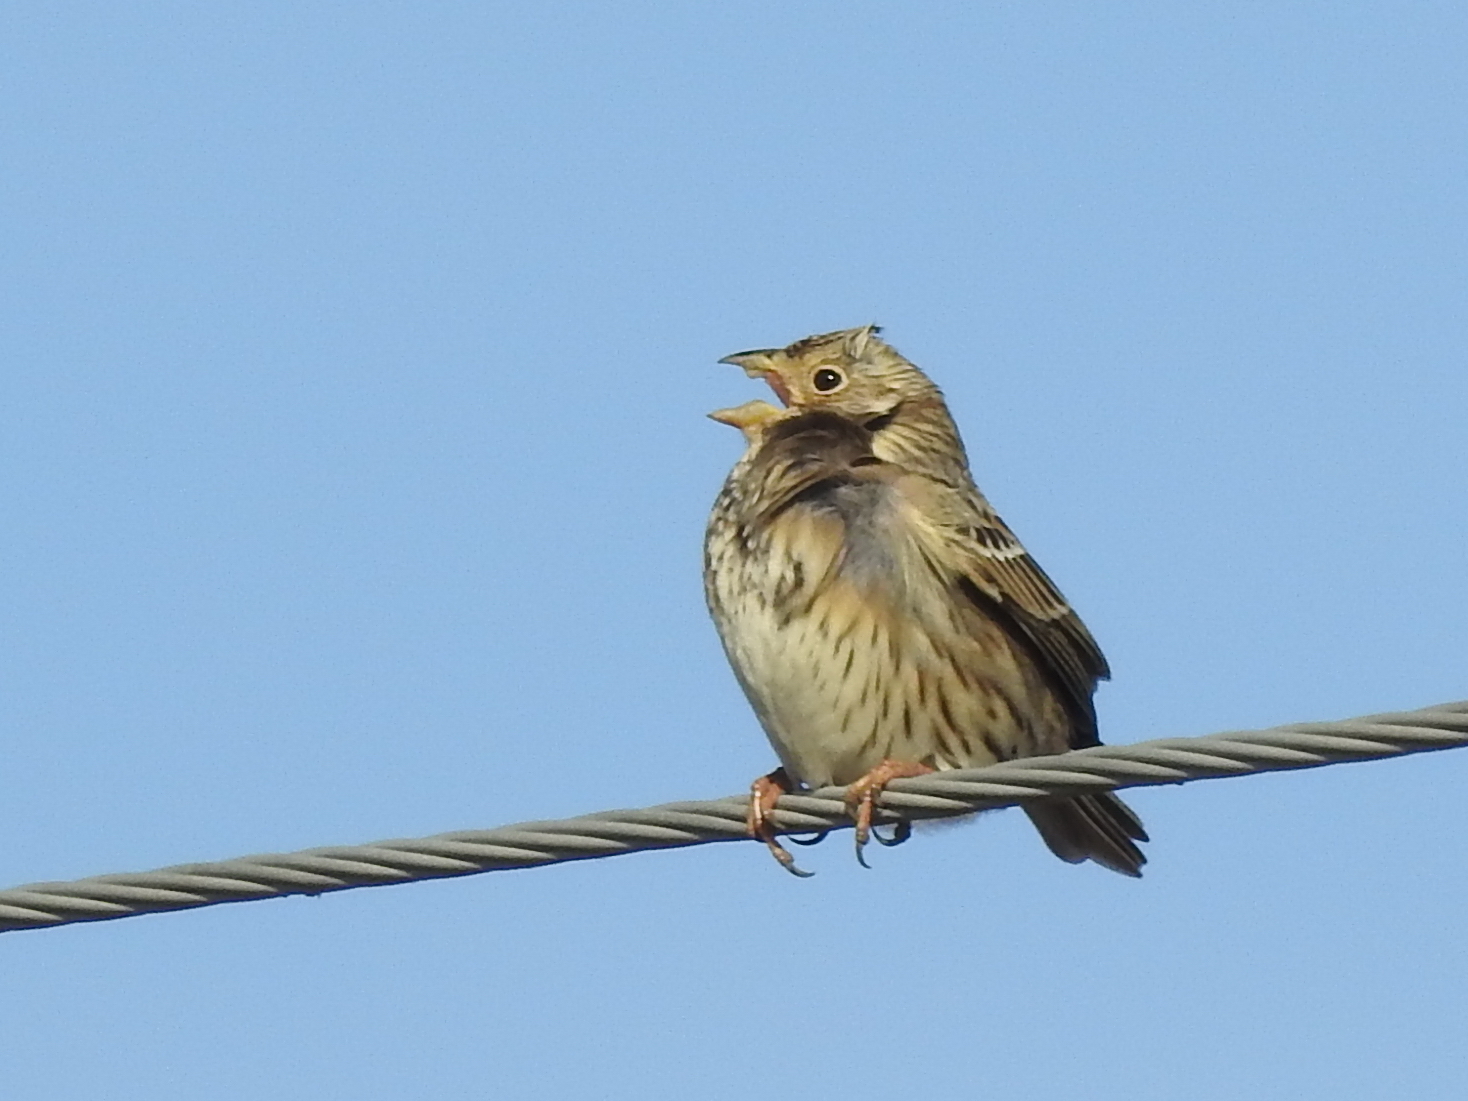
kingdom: Animalia
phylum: Chordata
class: Aves
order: Passeriformes
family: Emberizidae
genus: Emberiza
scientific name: Emberiza calandra
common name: Corn bunting
